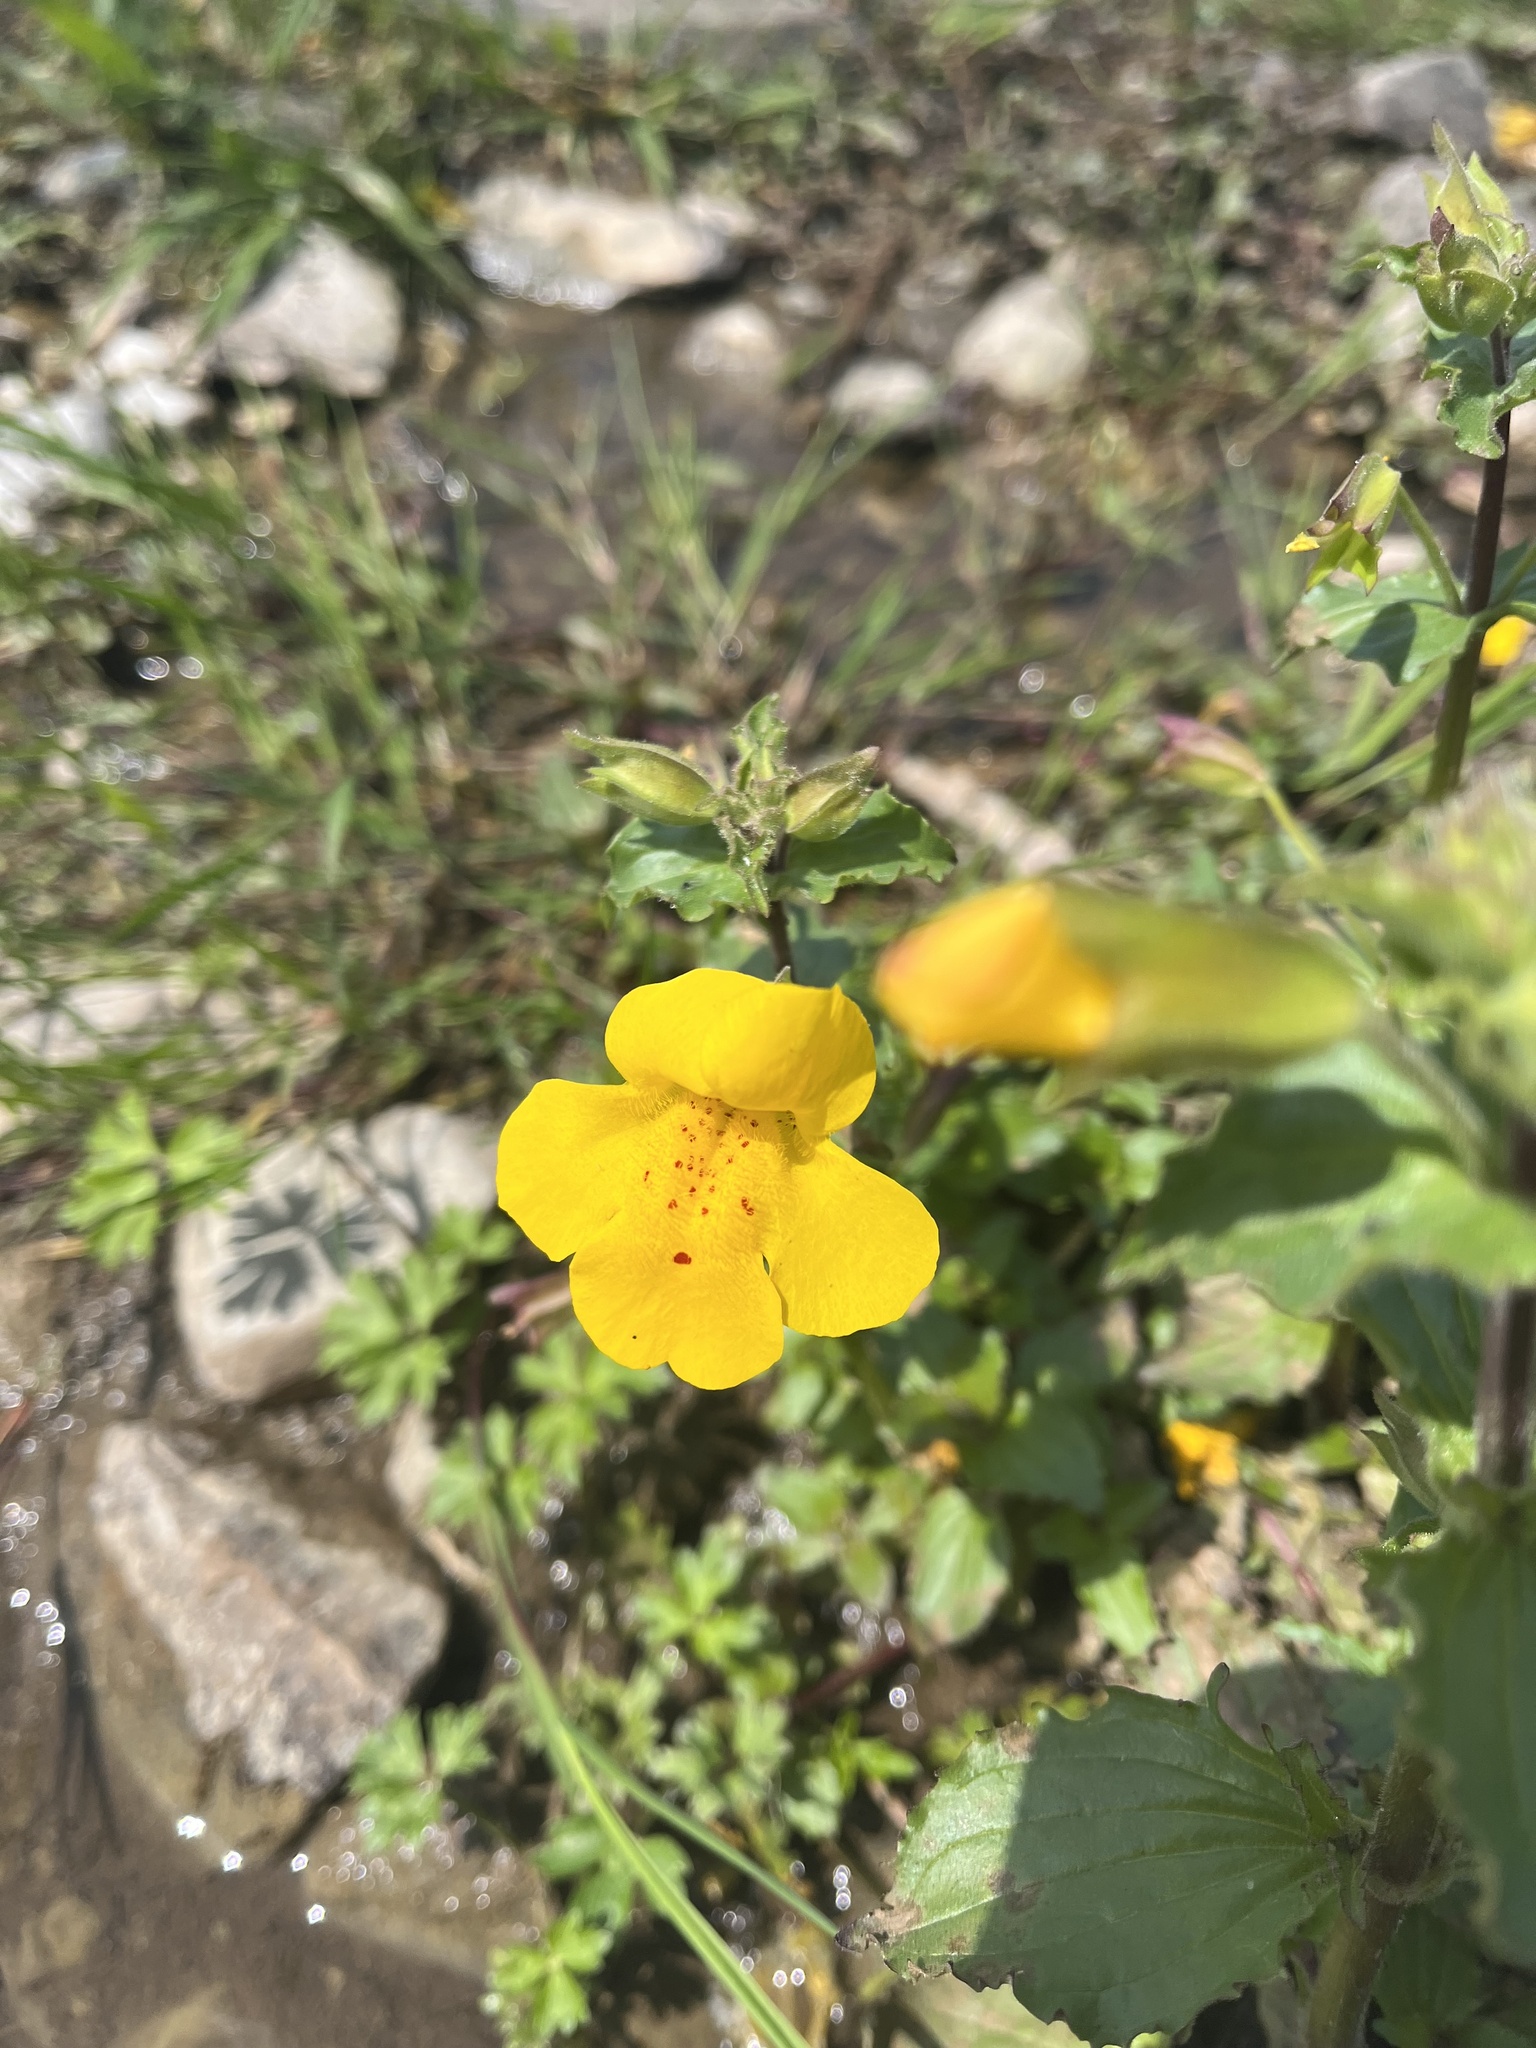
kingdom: Plantae
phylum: Tracheophyta
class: Magnoliopsida
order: Lamiales
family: Phrymaceae
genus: Erythranthe
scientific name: Erythranthe guttata
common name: Monkeyflower
